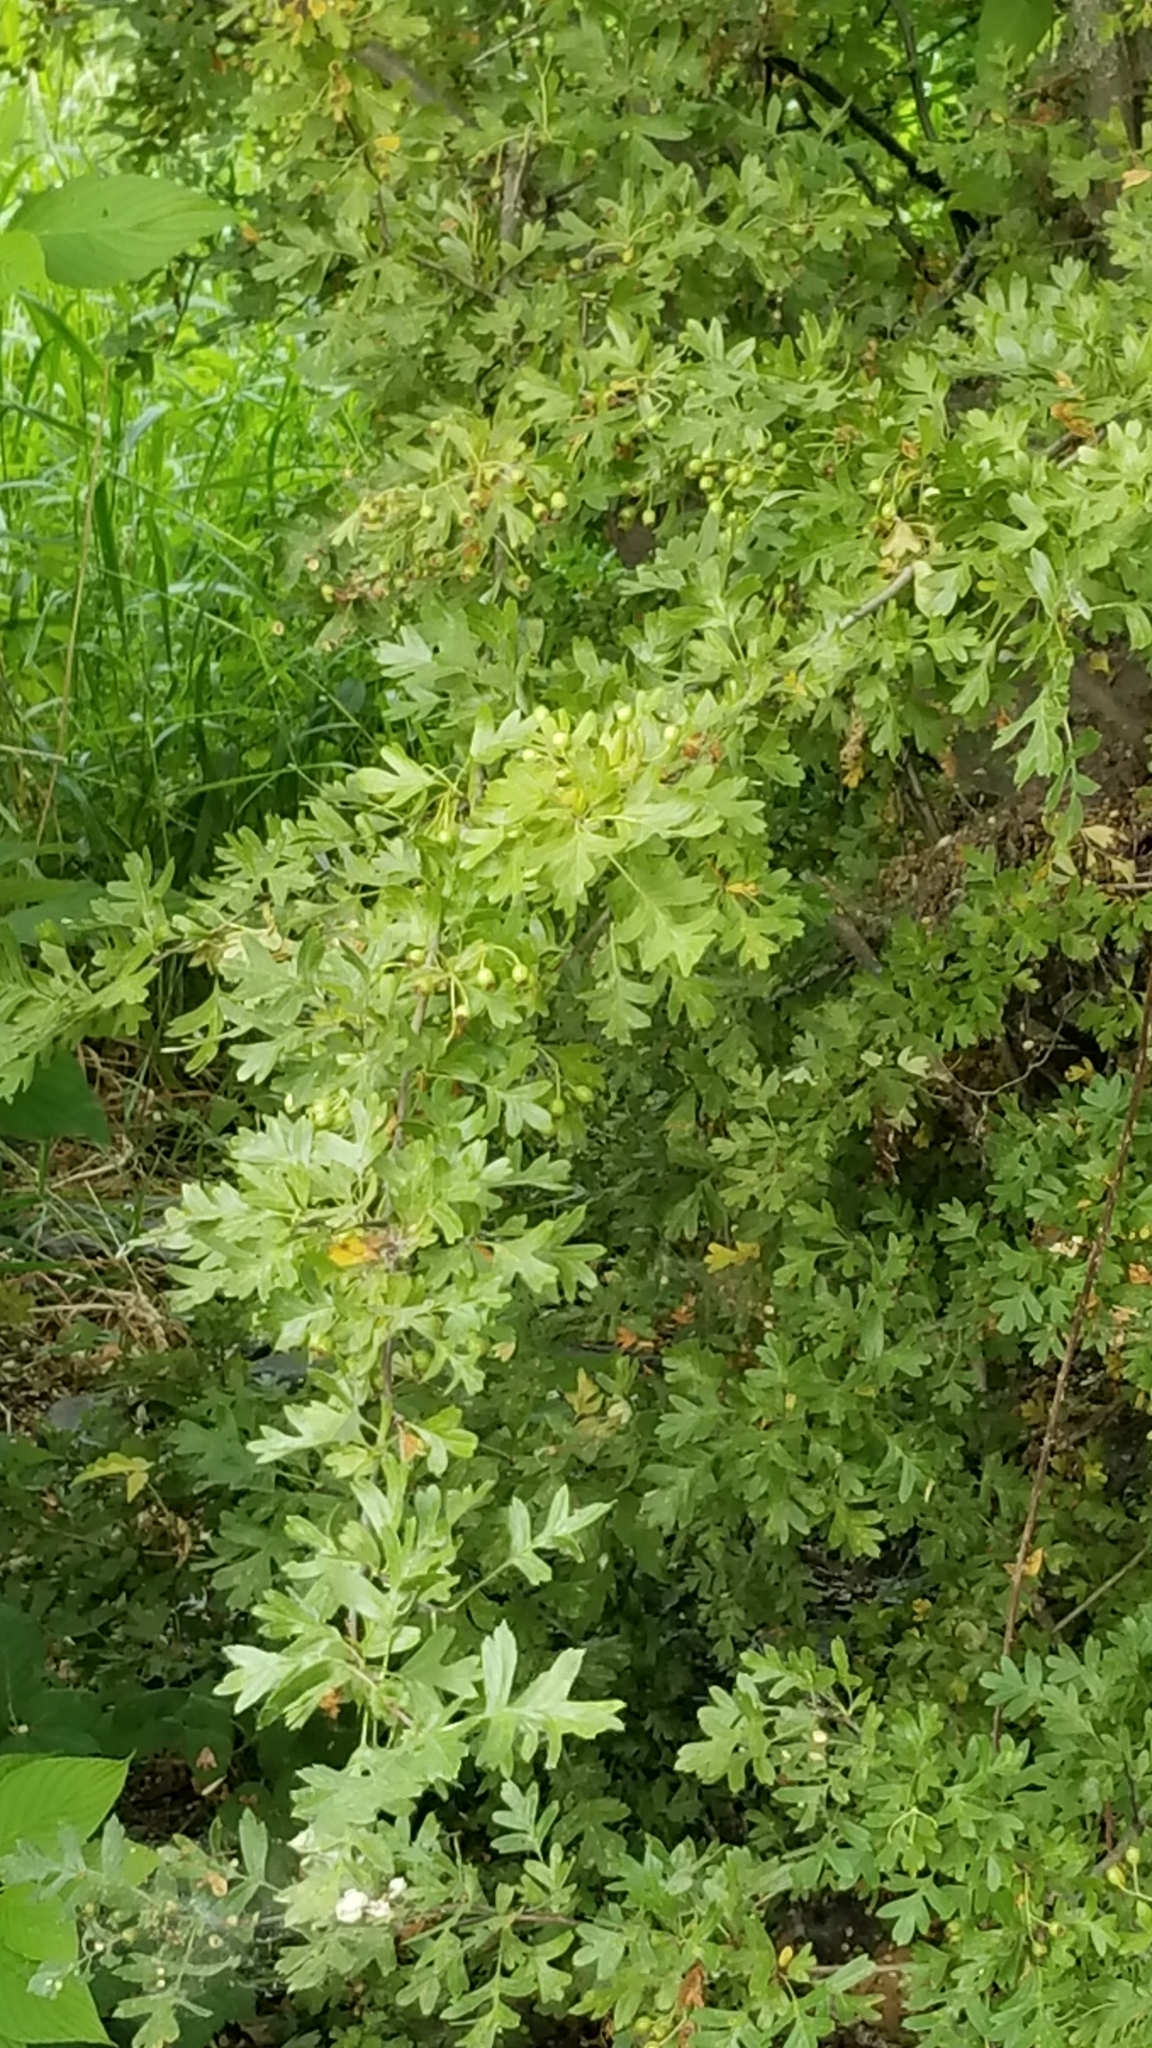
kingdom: Plantae
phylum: Tracheophyta
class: Magnoliopsida
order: Rosales
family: Rosaceae
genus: Crataegus
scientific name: Crataegus monogyna
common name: Hawthorn
